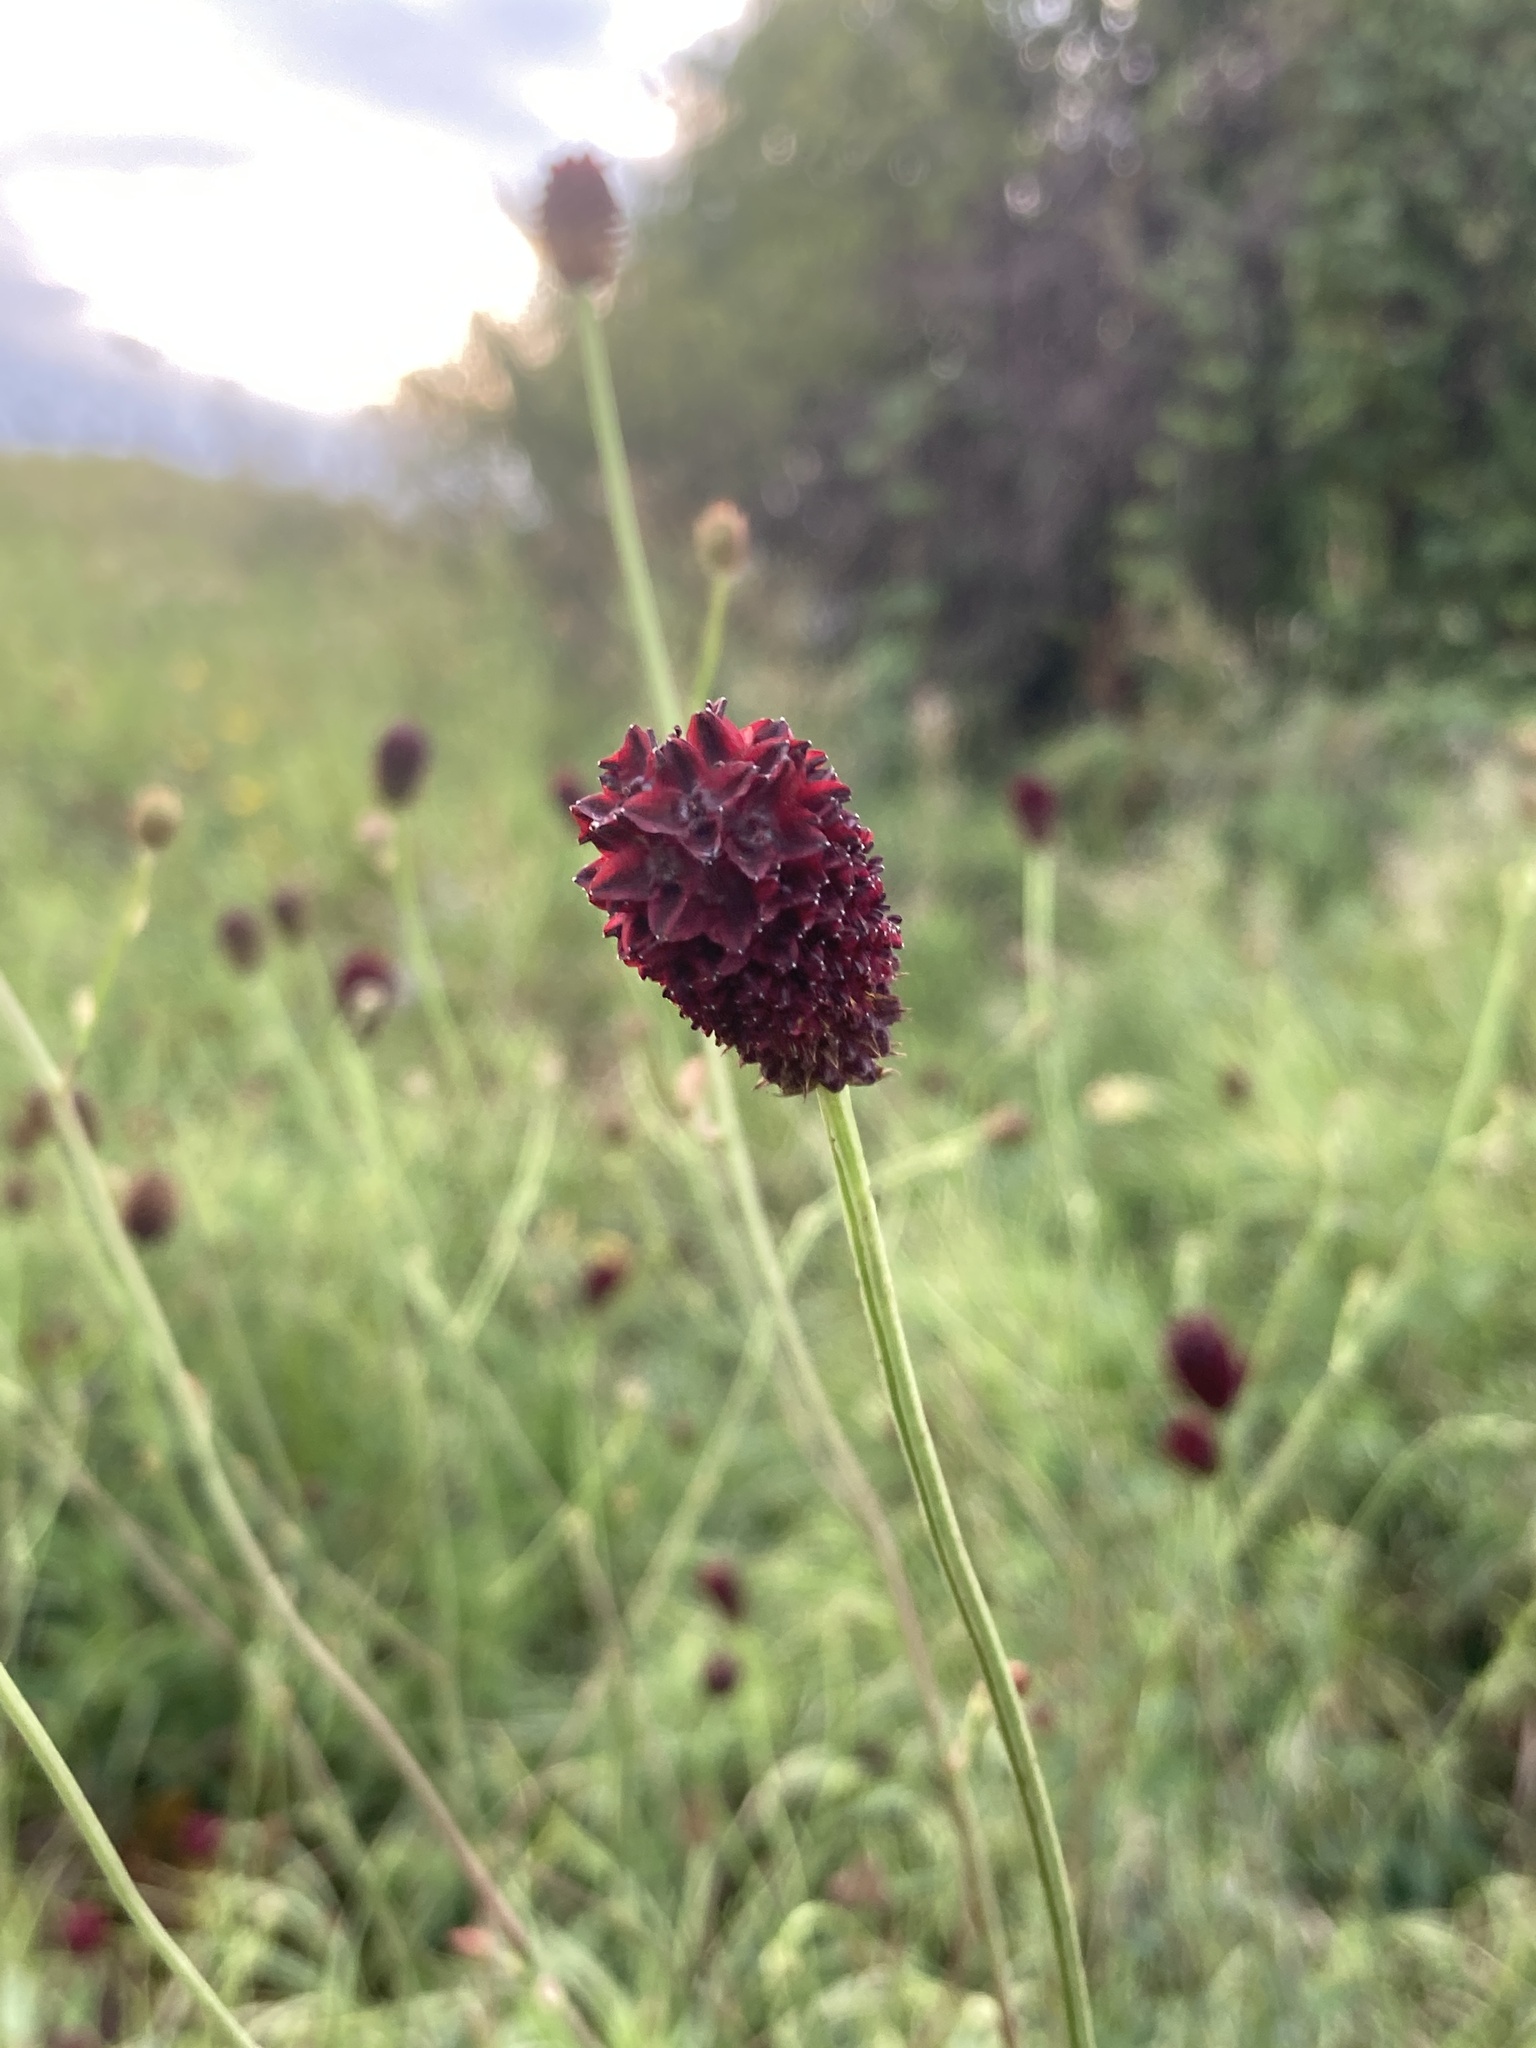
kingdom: Plantae
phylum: Tracheophyta
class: Magnoliopsida
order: Rosales
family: Rosaceae
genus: Sanguisorba
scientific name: Sanguisorba officinalis
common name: Great burnet
